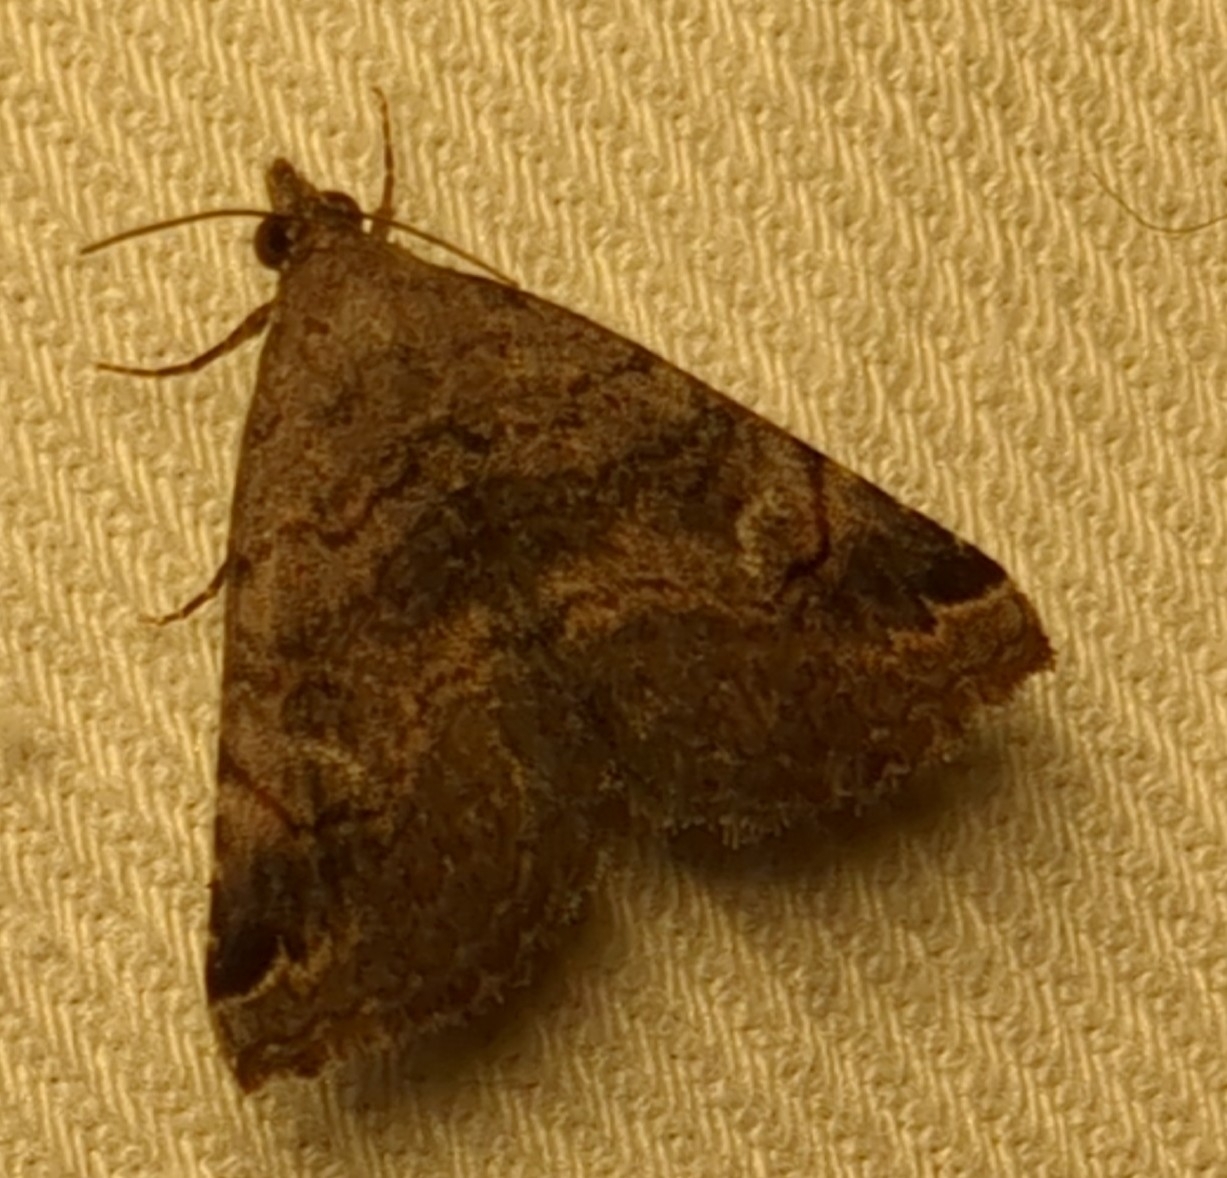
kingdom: Animalia
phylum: Arthropoda
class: Insecta
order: Lepidoptera
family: Erebidae
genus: Toxonprucha
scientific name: Toxonprucha crudelis
